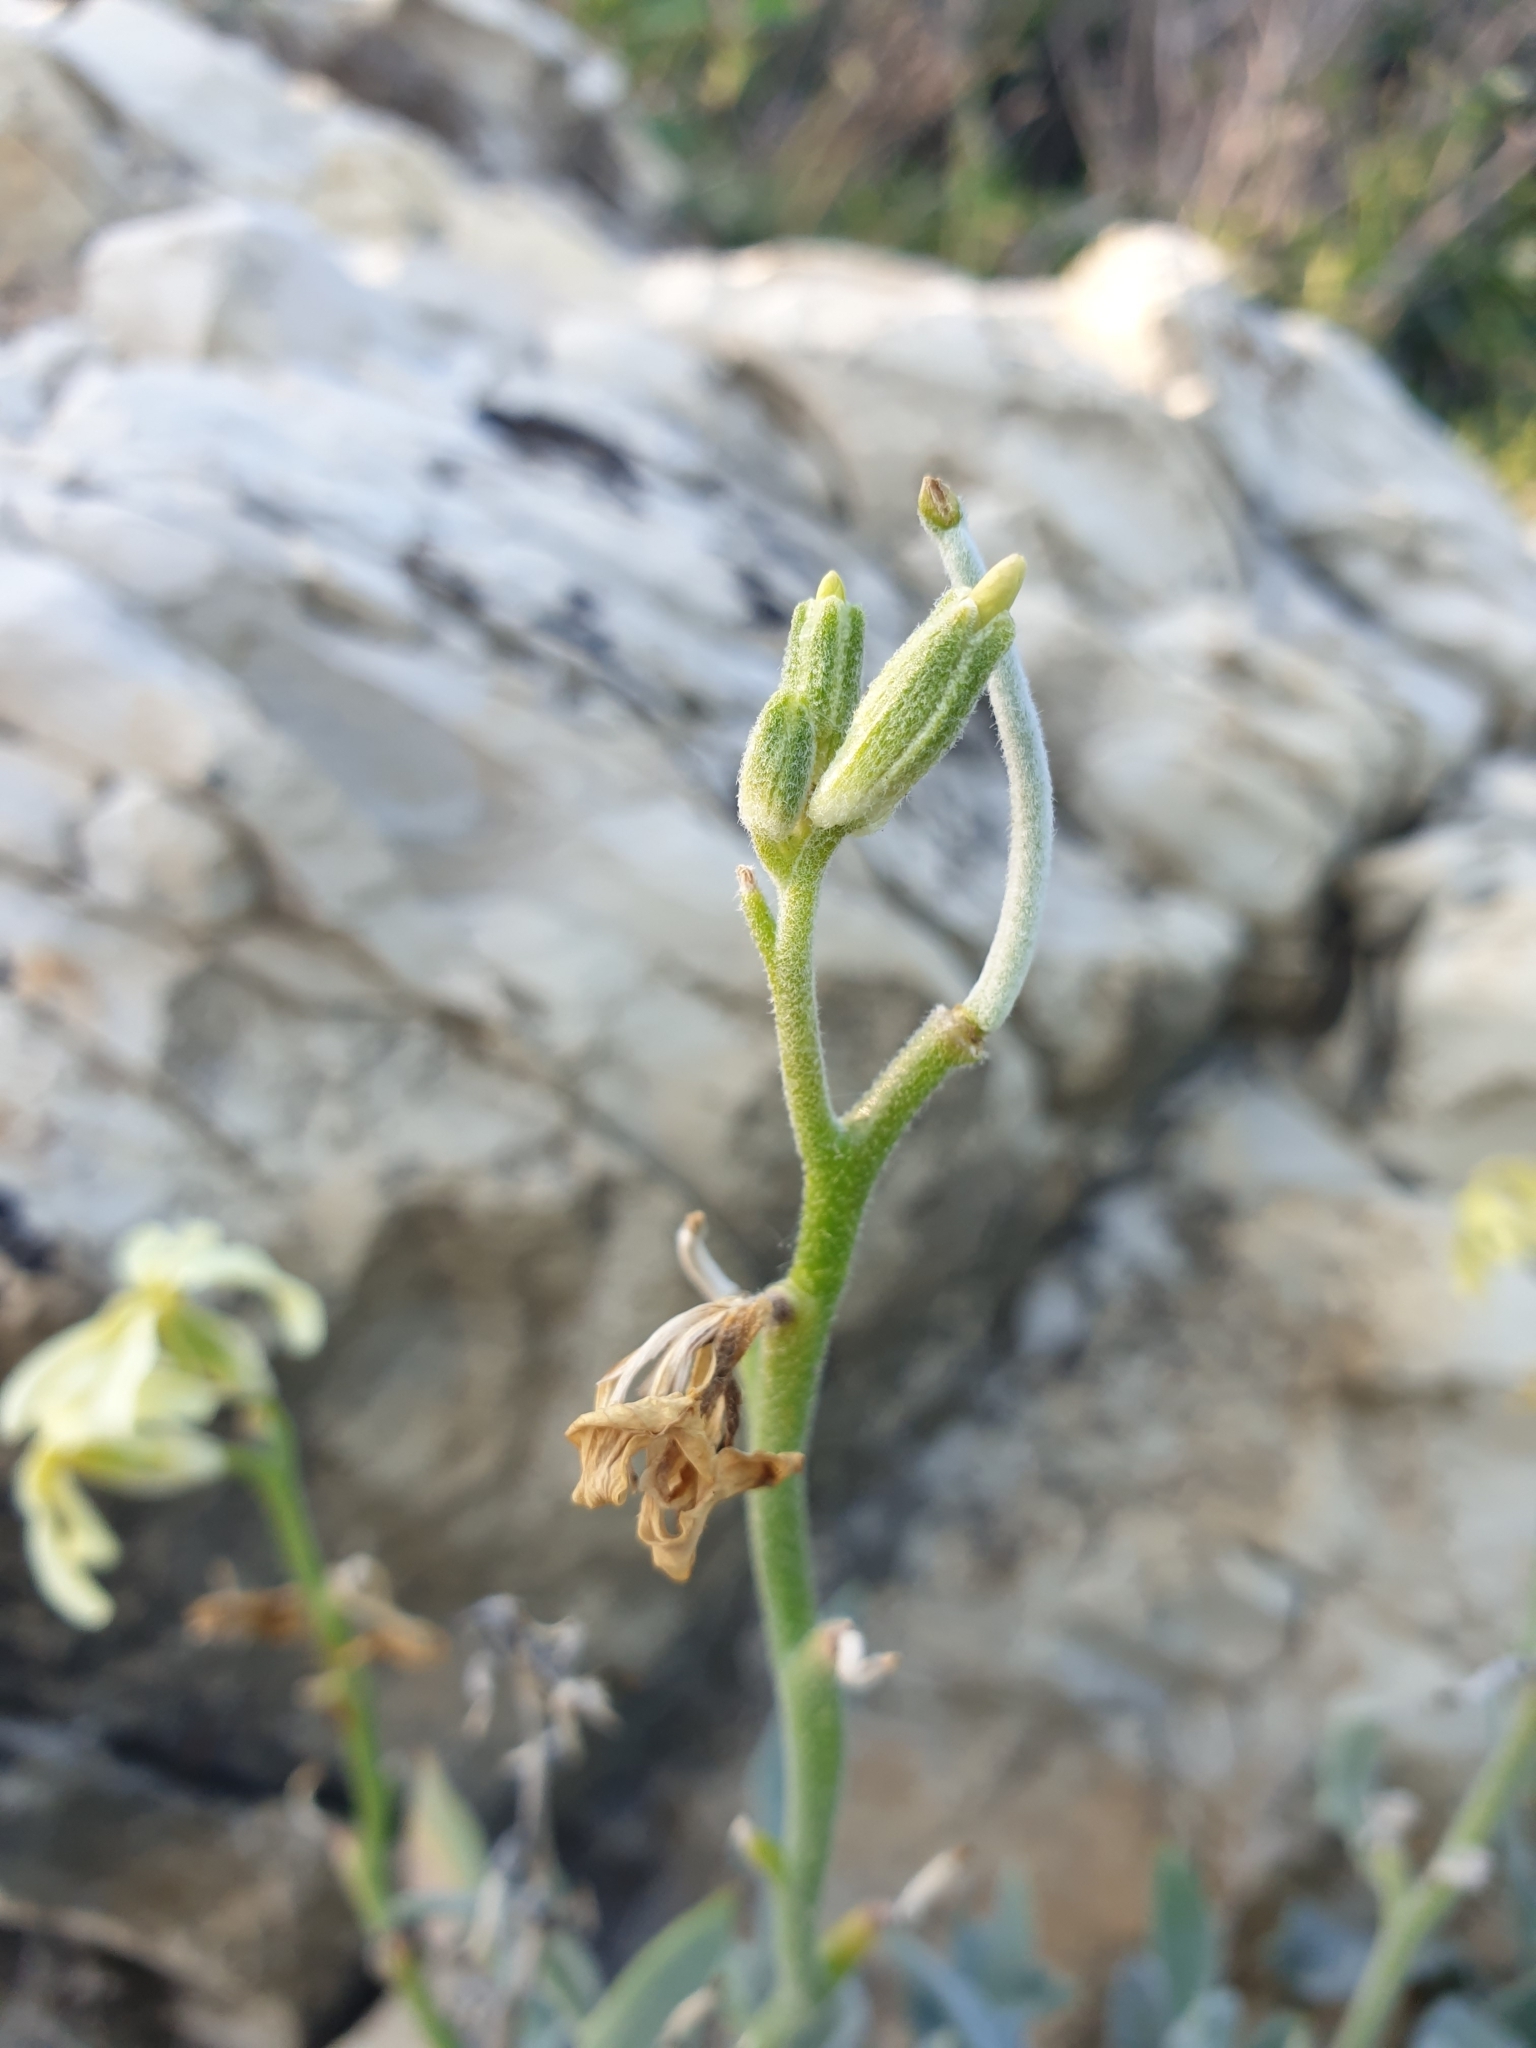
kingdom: Plantae
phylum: Tracheophyta
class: Magnoliopsida
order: Brassicales
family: Brassicaceae
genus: Matthiola
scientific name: Matthiola odoratissima
